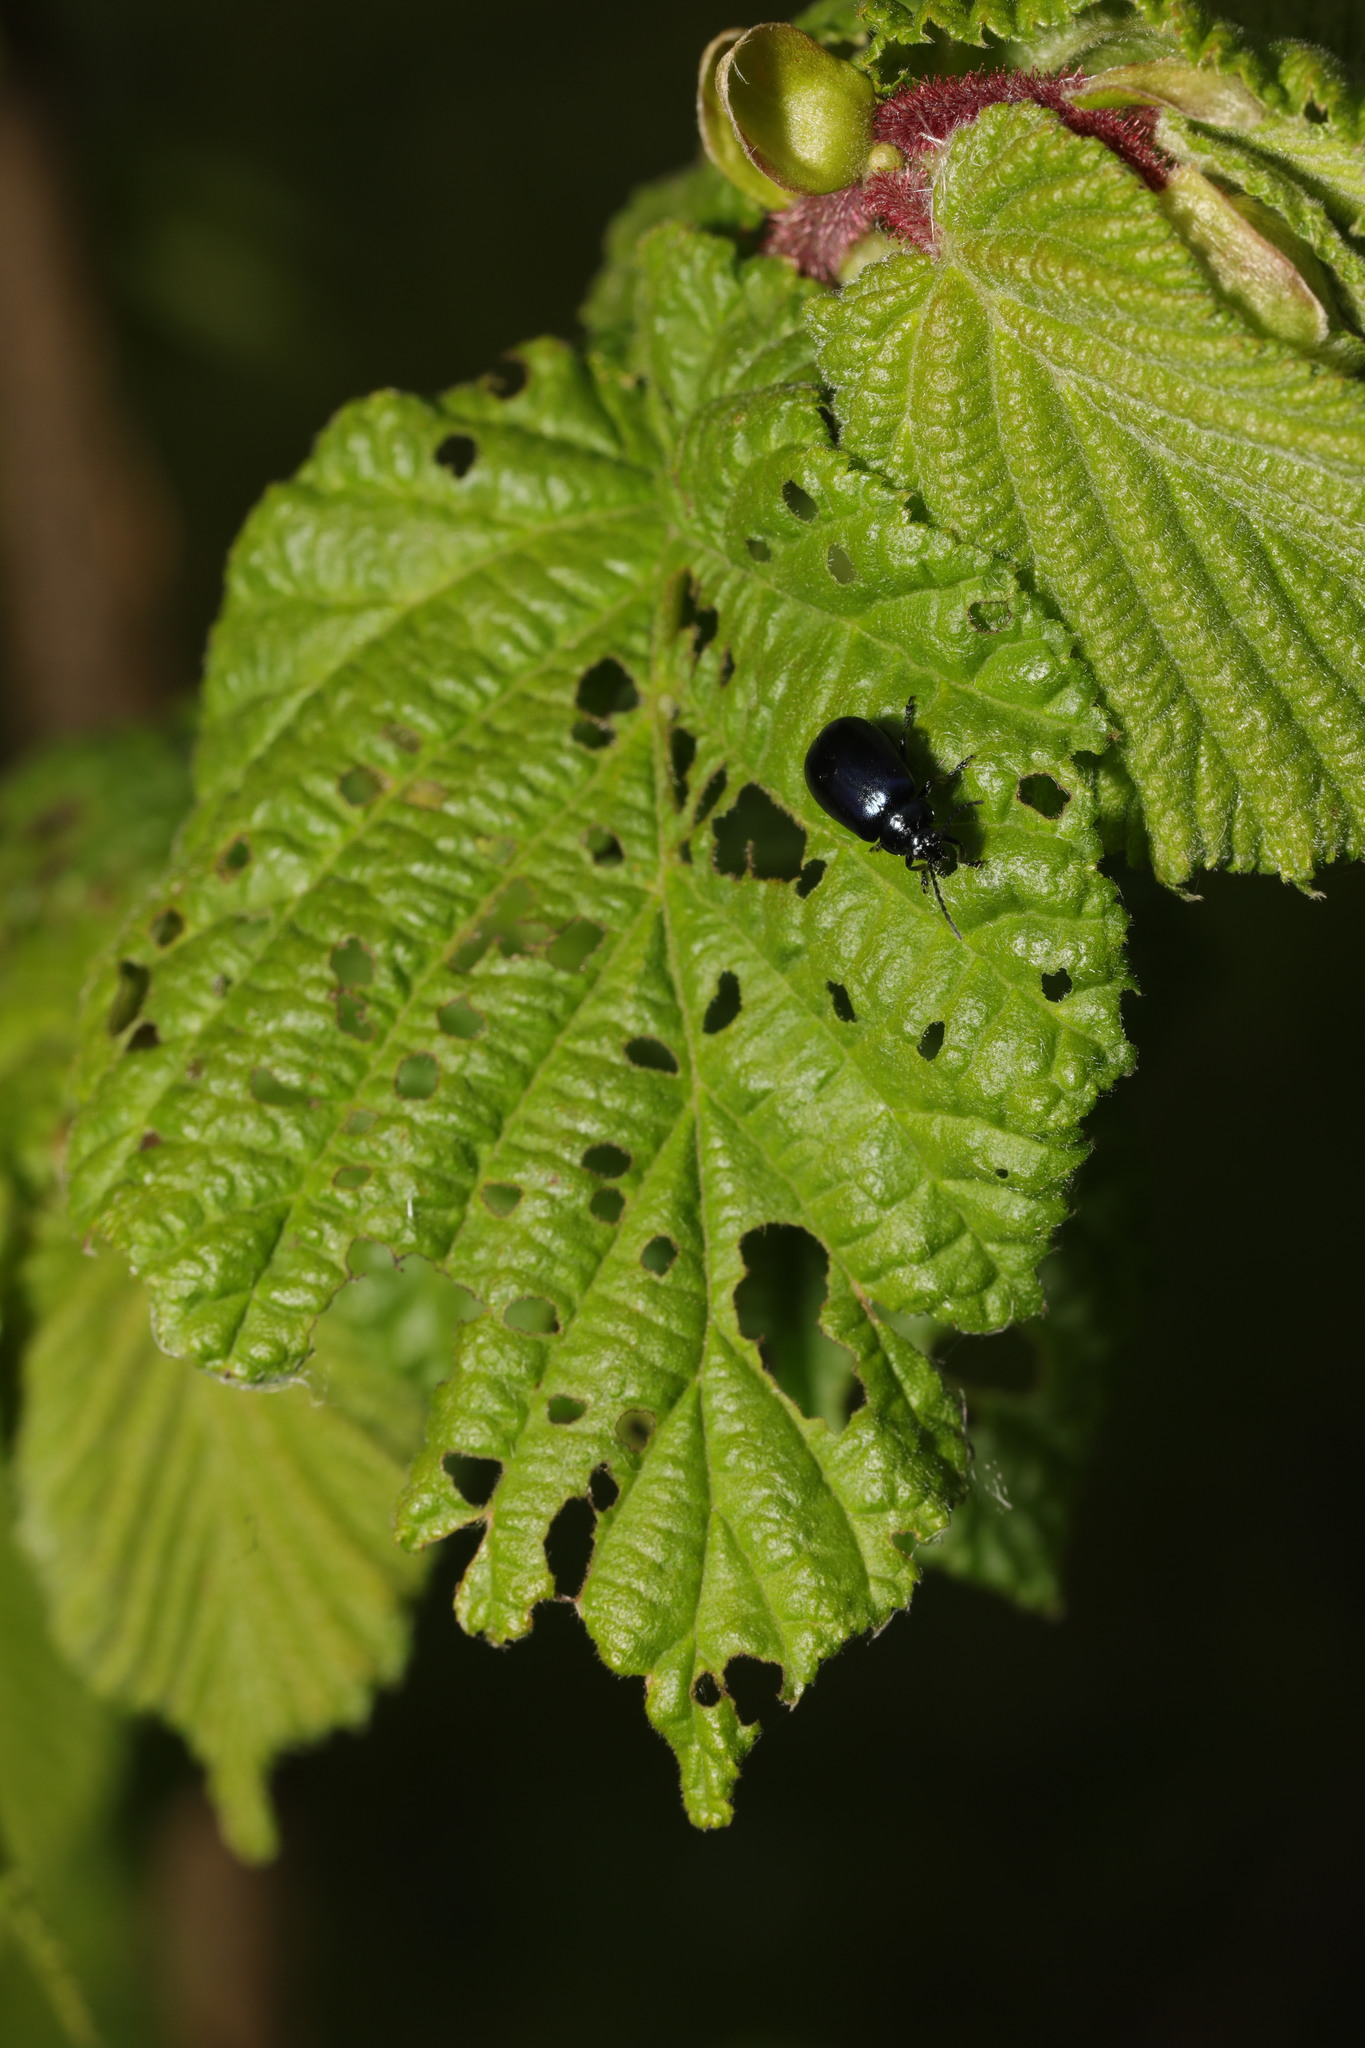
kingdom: Animalia
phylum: Arthropoda
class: Insecta
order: Coleoptera
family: Chrysomelidae
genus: Agelastica
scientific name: Agelastica alni
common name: Alder leaf beetle
